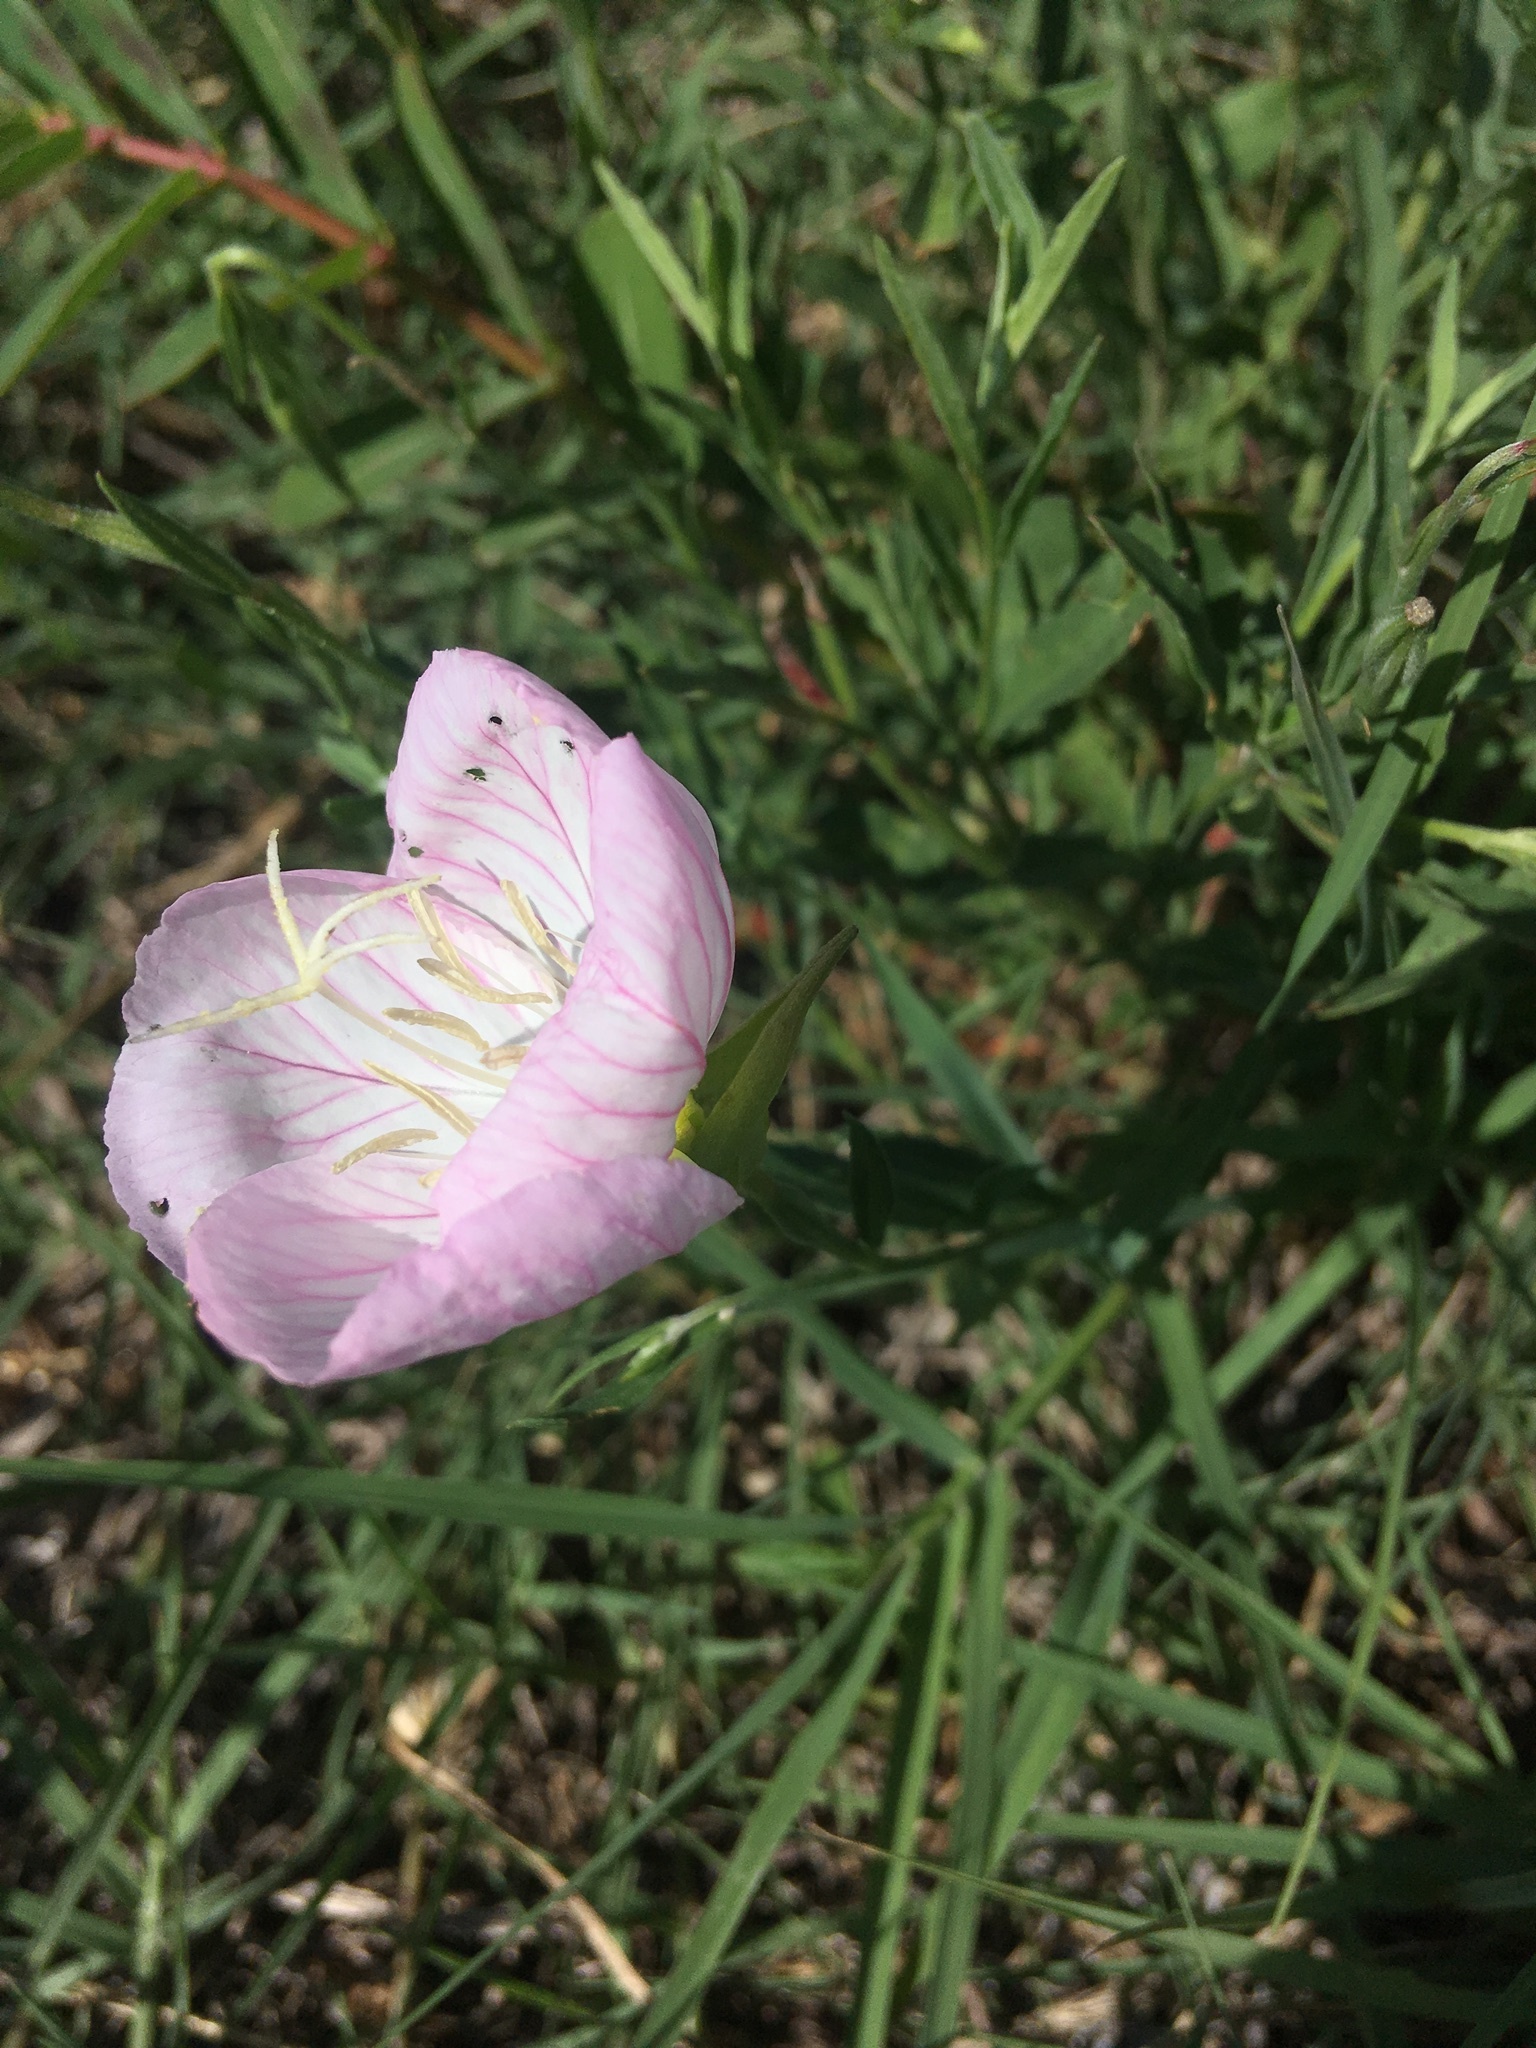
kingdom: Plantae
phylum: Tracheophyta
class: Magnoliopsida
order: Myrtales
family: Onagraceae
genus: Oenothera
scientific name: Oenothera speciosa
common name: White evening-primrose
